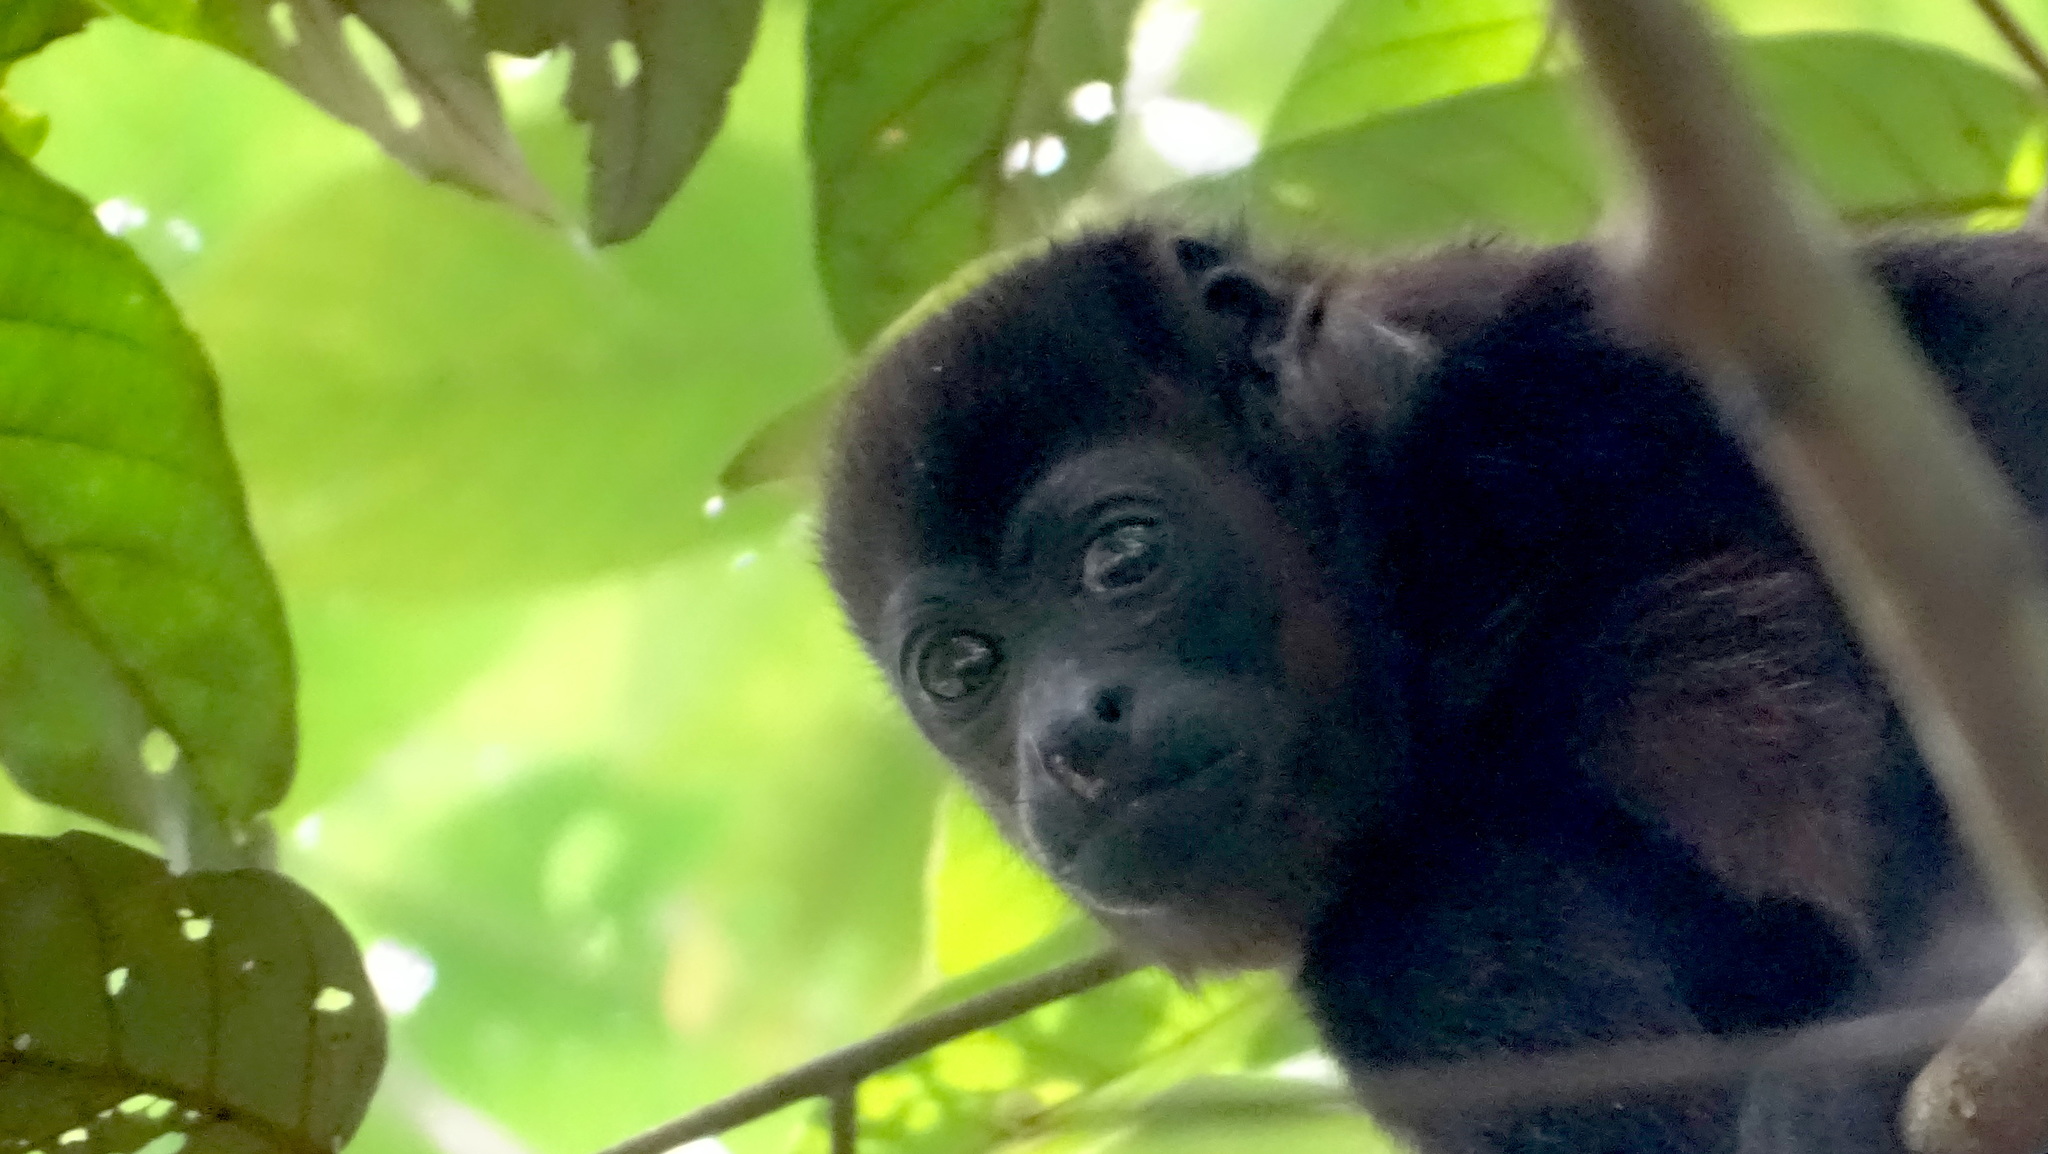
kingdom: Animalia
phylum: Chordata
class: Mammalia
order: Primates
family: Atelidae
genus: Alouatta
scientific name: Alouatta palliata
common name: Mantled howler
